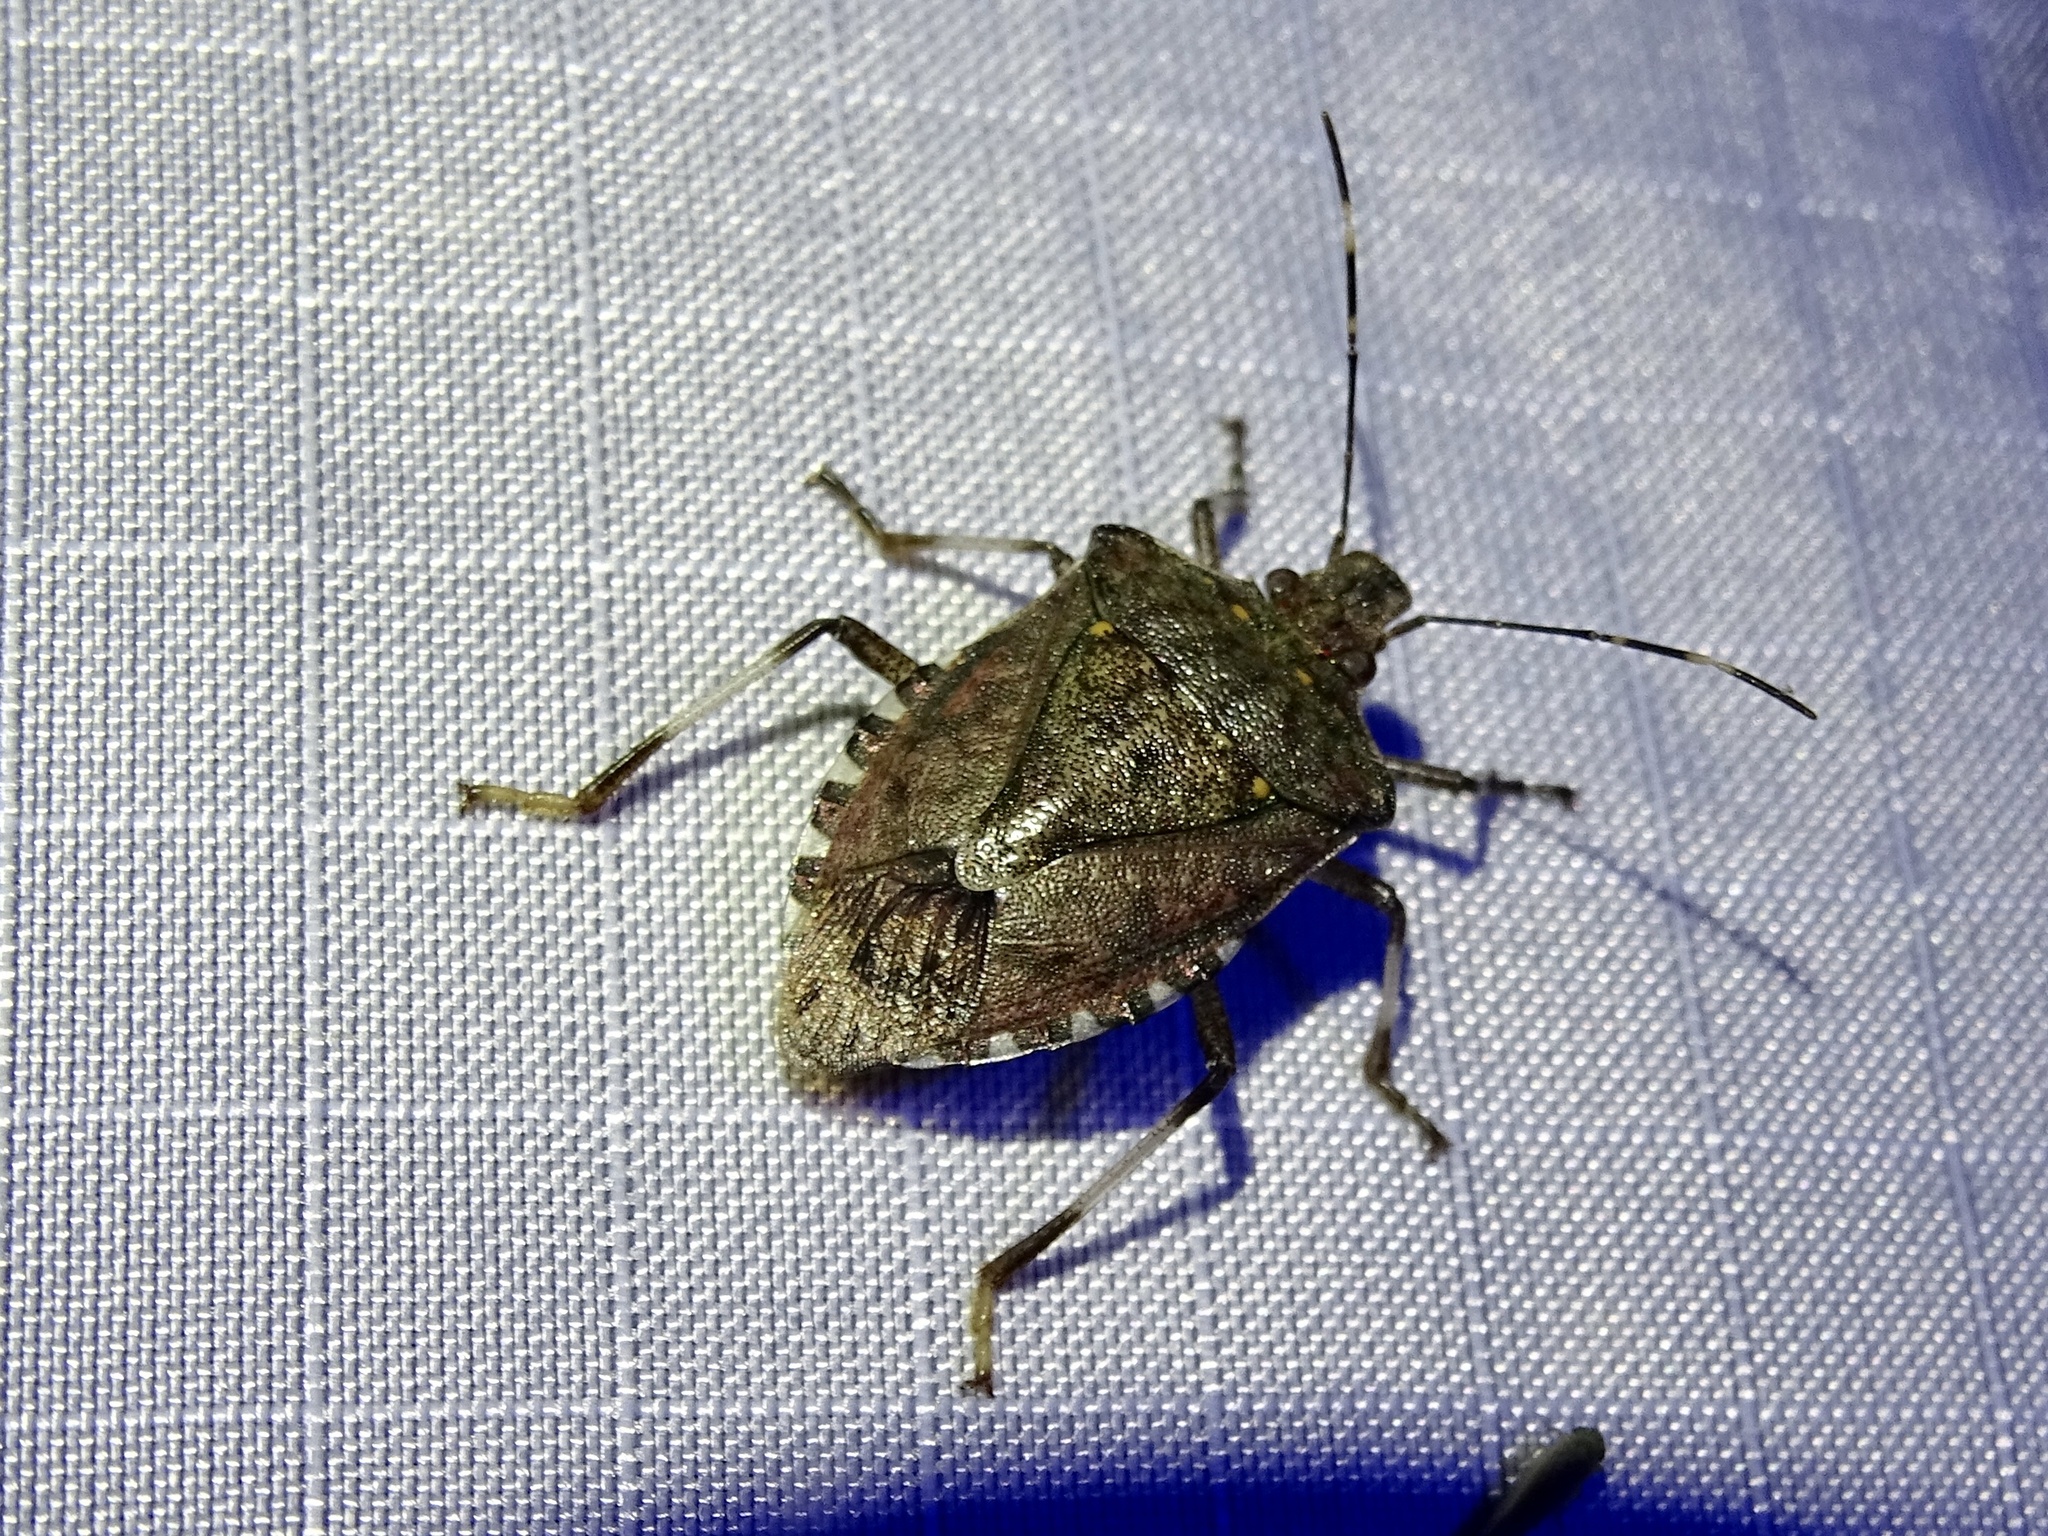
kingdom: Animalia
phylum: Arthropoda
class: Insecta
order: Hemiptera
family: Pentatomidae
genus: Halyomorpha
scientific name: Halyomorpha halys
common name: Brown marmorated stink bug
